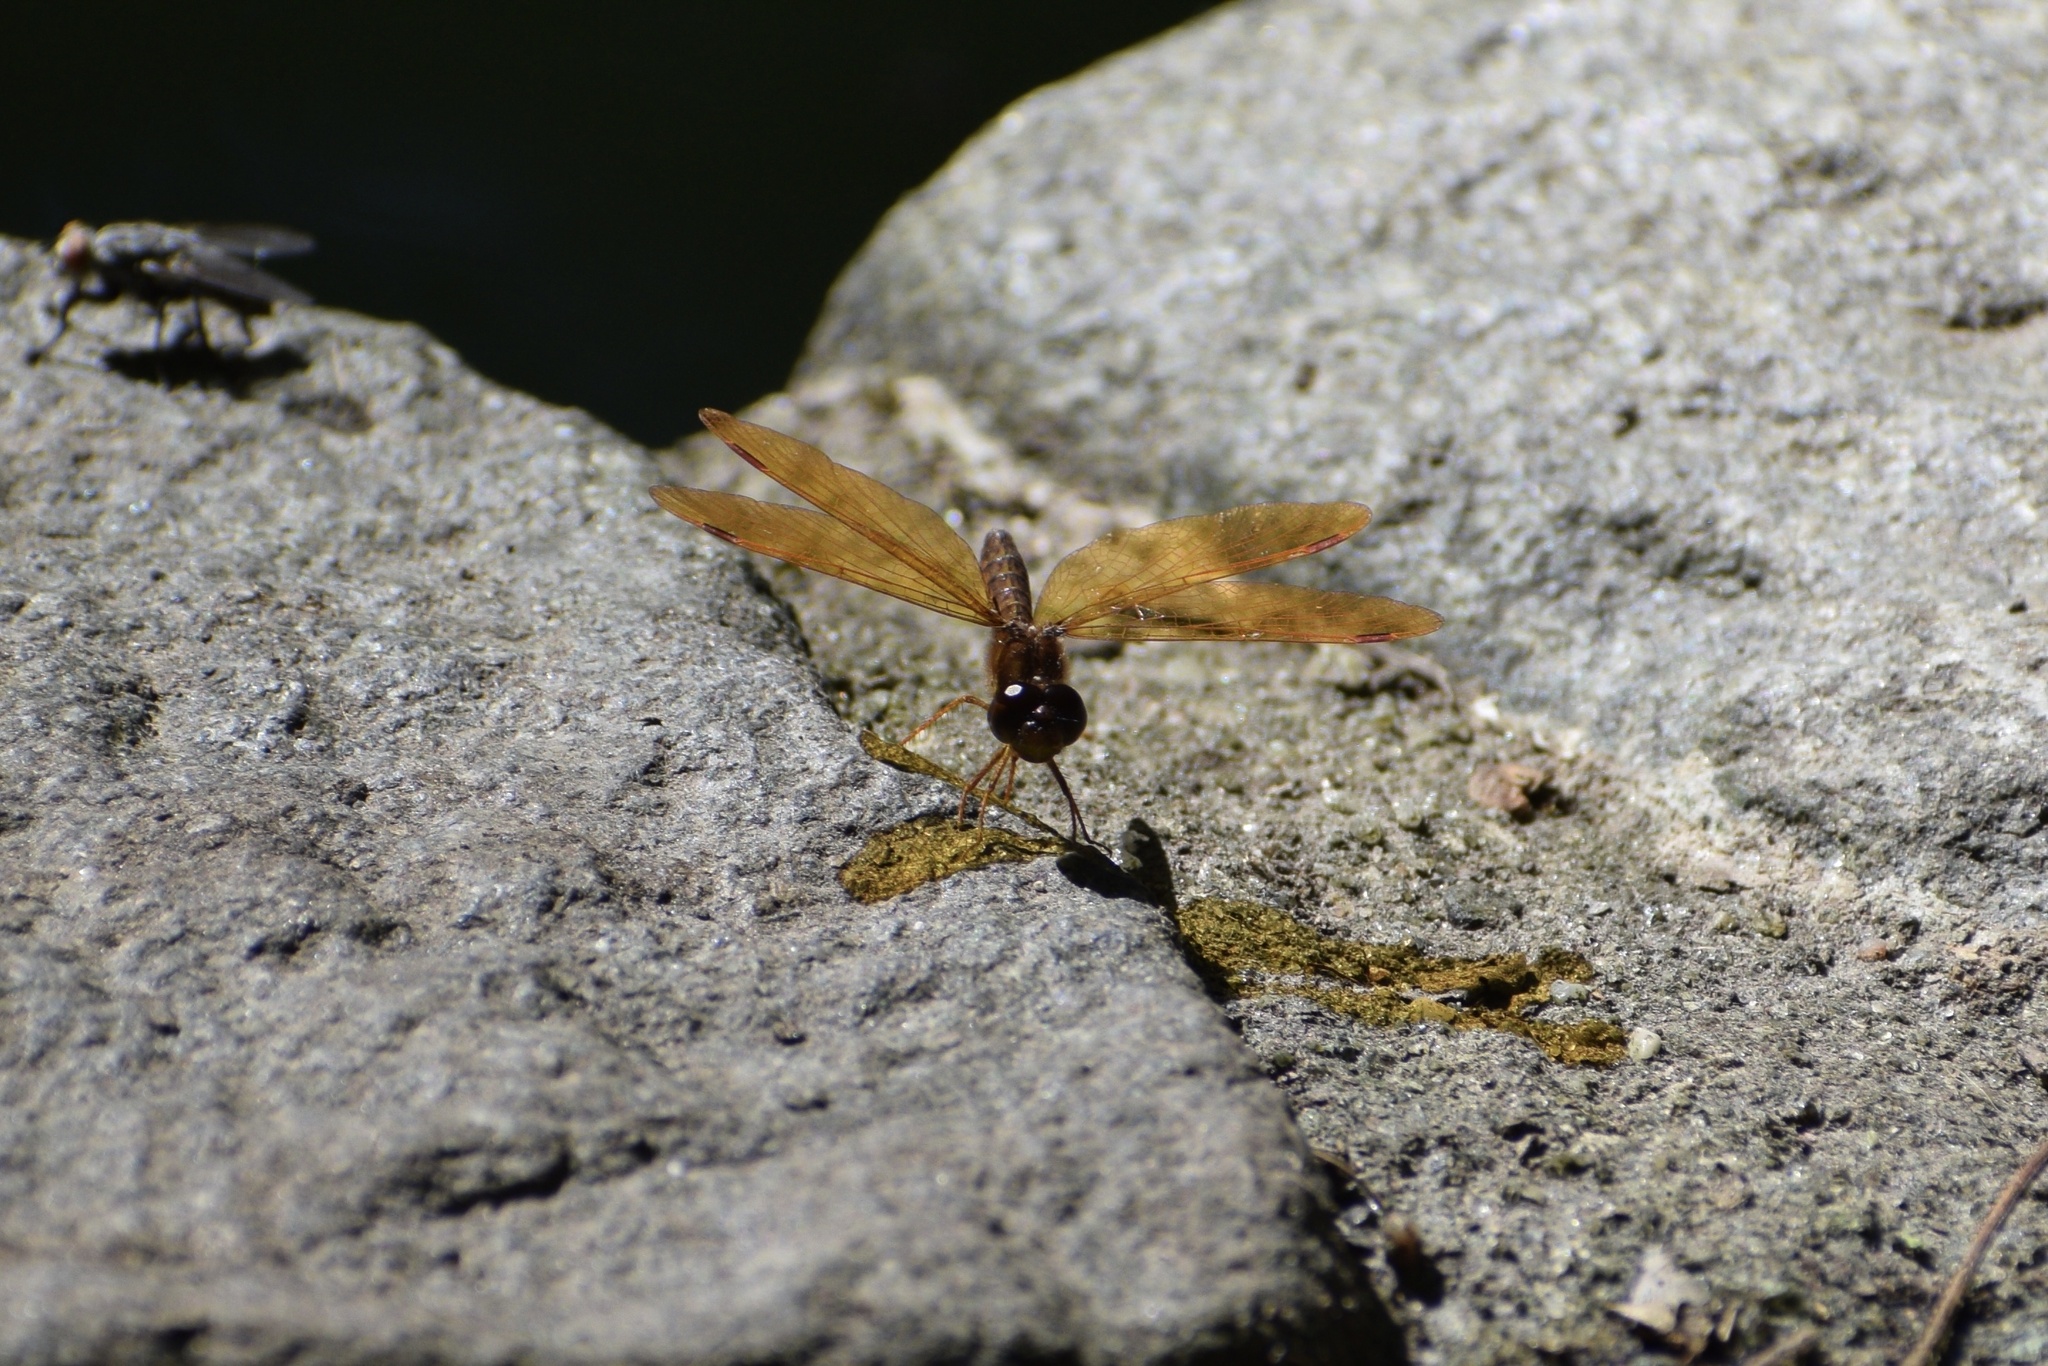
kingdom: Animalia
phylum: Arthropoda
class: Insecta
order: Odonata
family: Libellulidae
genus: Perithemis
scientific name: Perithemis tenera
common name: Eastern amberwing
